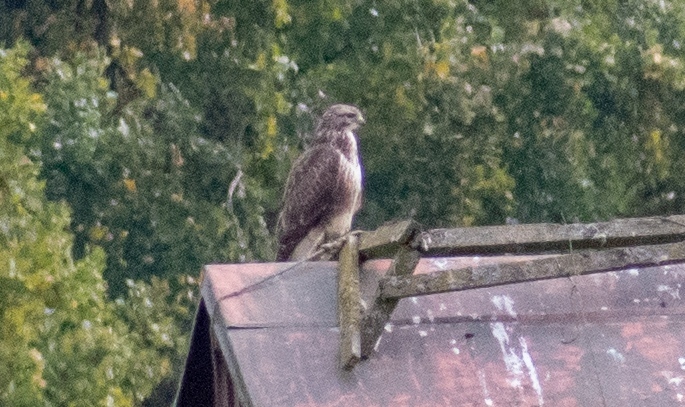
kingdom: Animalia
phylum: Chordata
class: Aves
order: Accipitriformes
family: Accipitridae
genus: Buteo
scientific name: Buteo buteo
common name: Common buzzard
